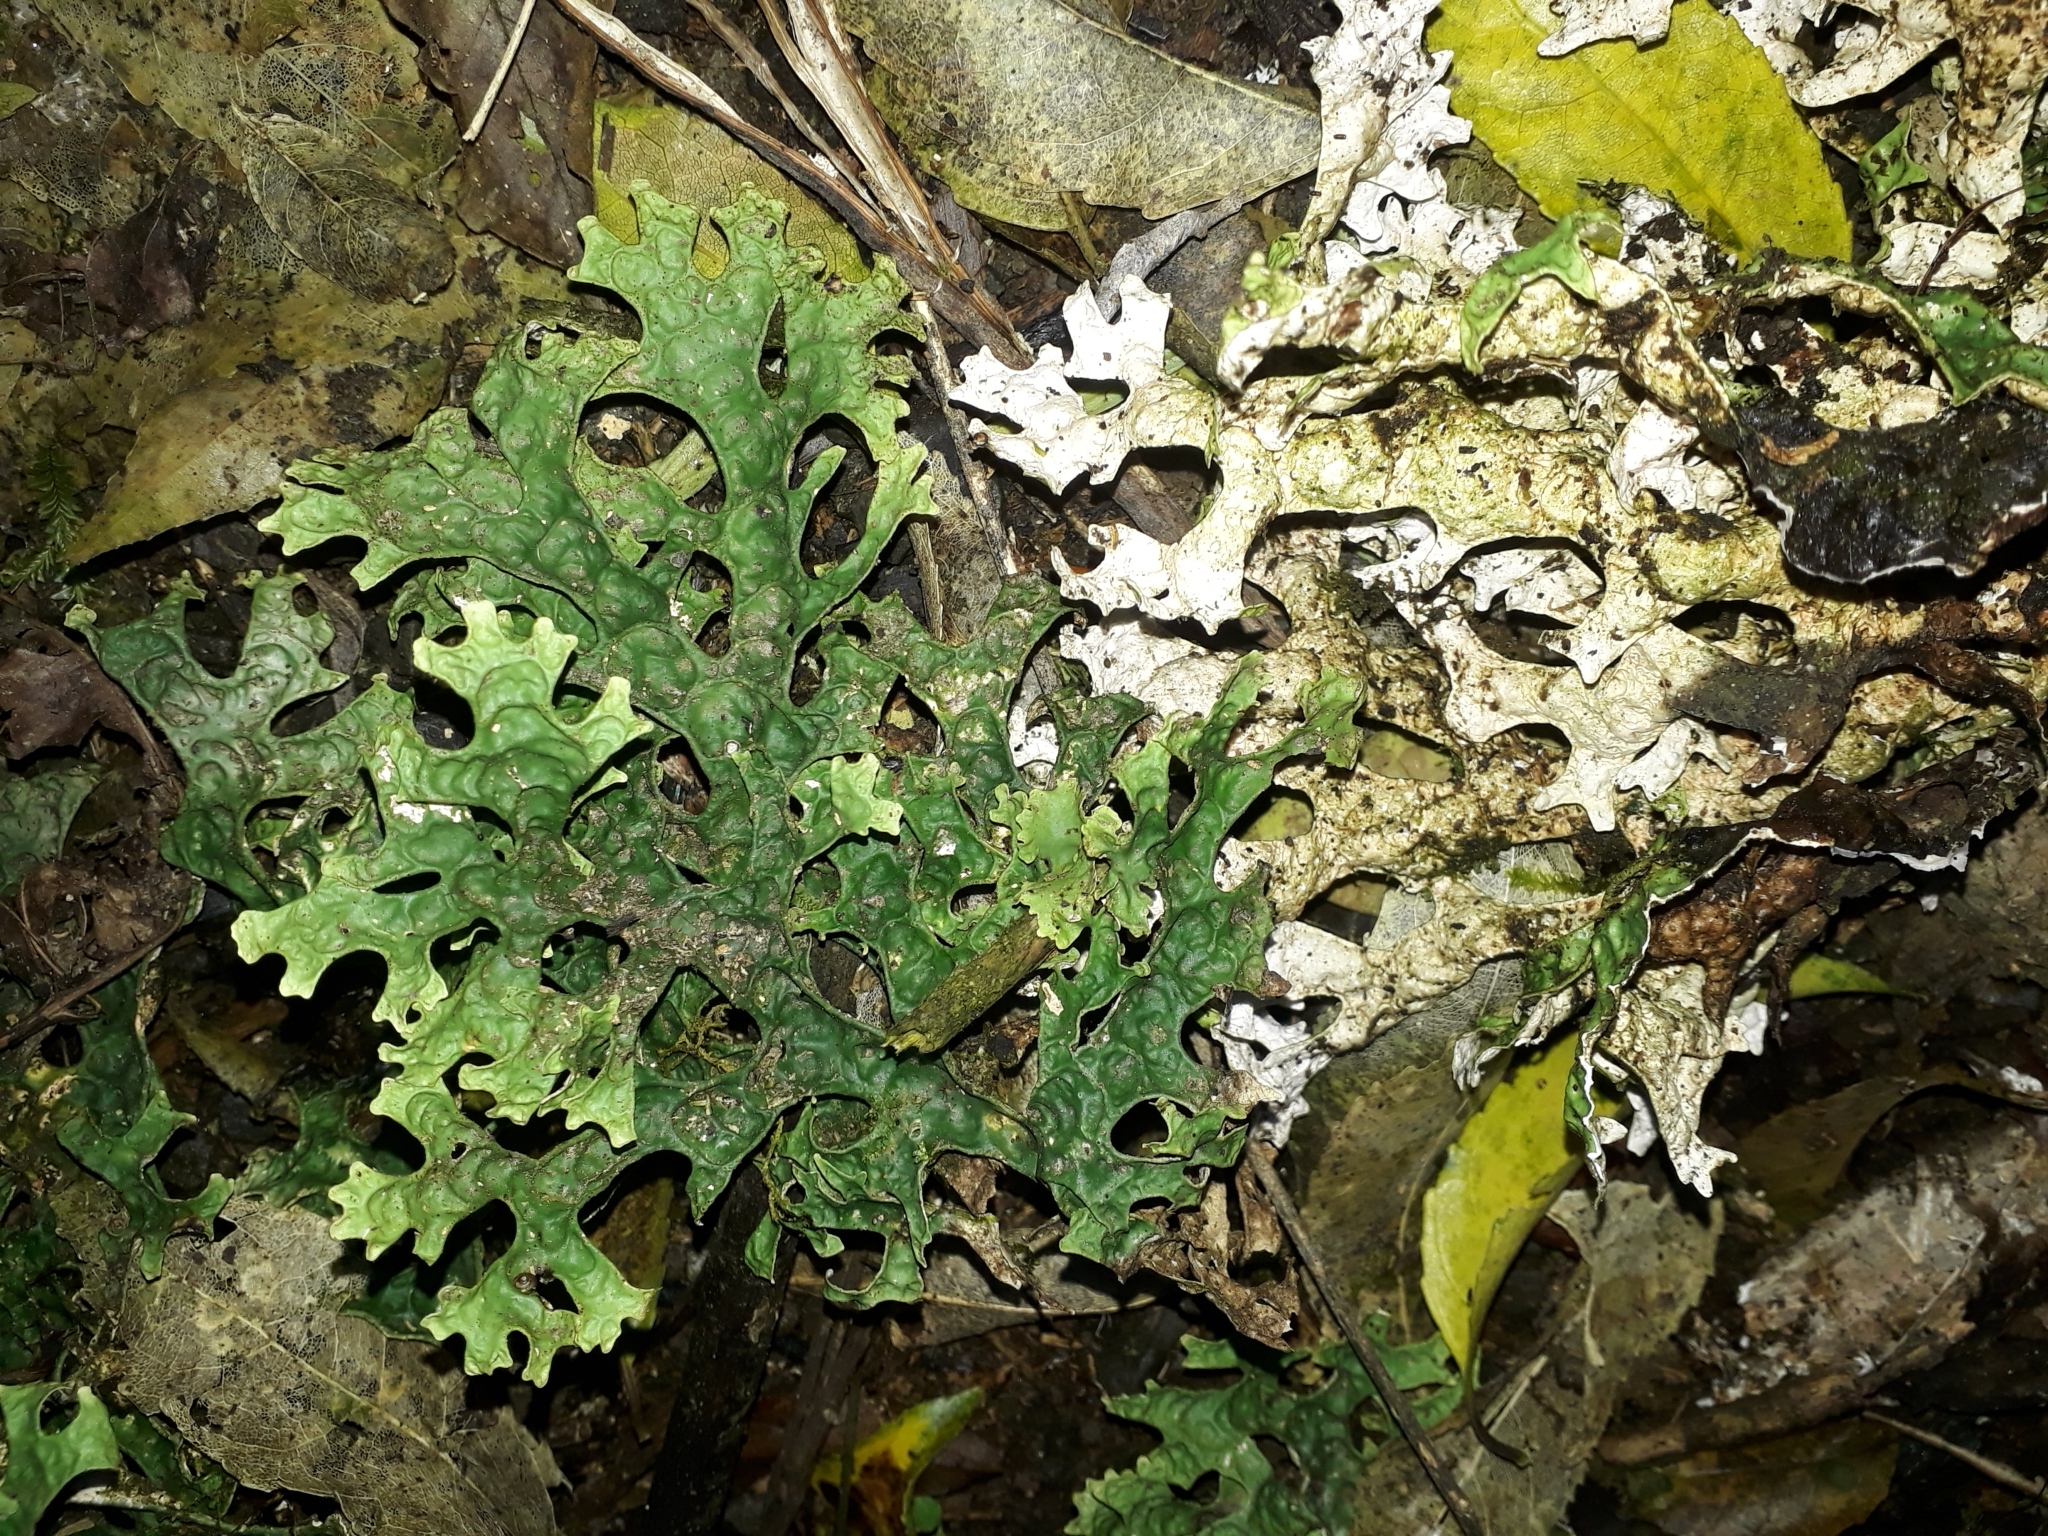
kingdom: Fungi
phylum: Ascomycota
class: Lecanoromycetes
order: Peltigerales
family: Lobariaceae
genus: Pseudocyphellaria
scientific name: Pseudocyphellaria rufovirescens
